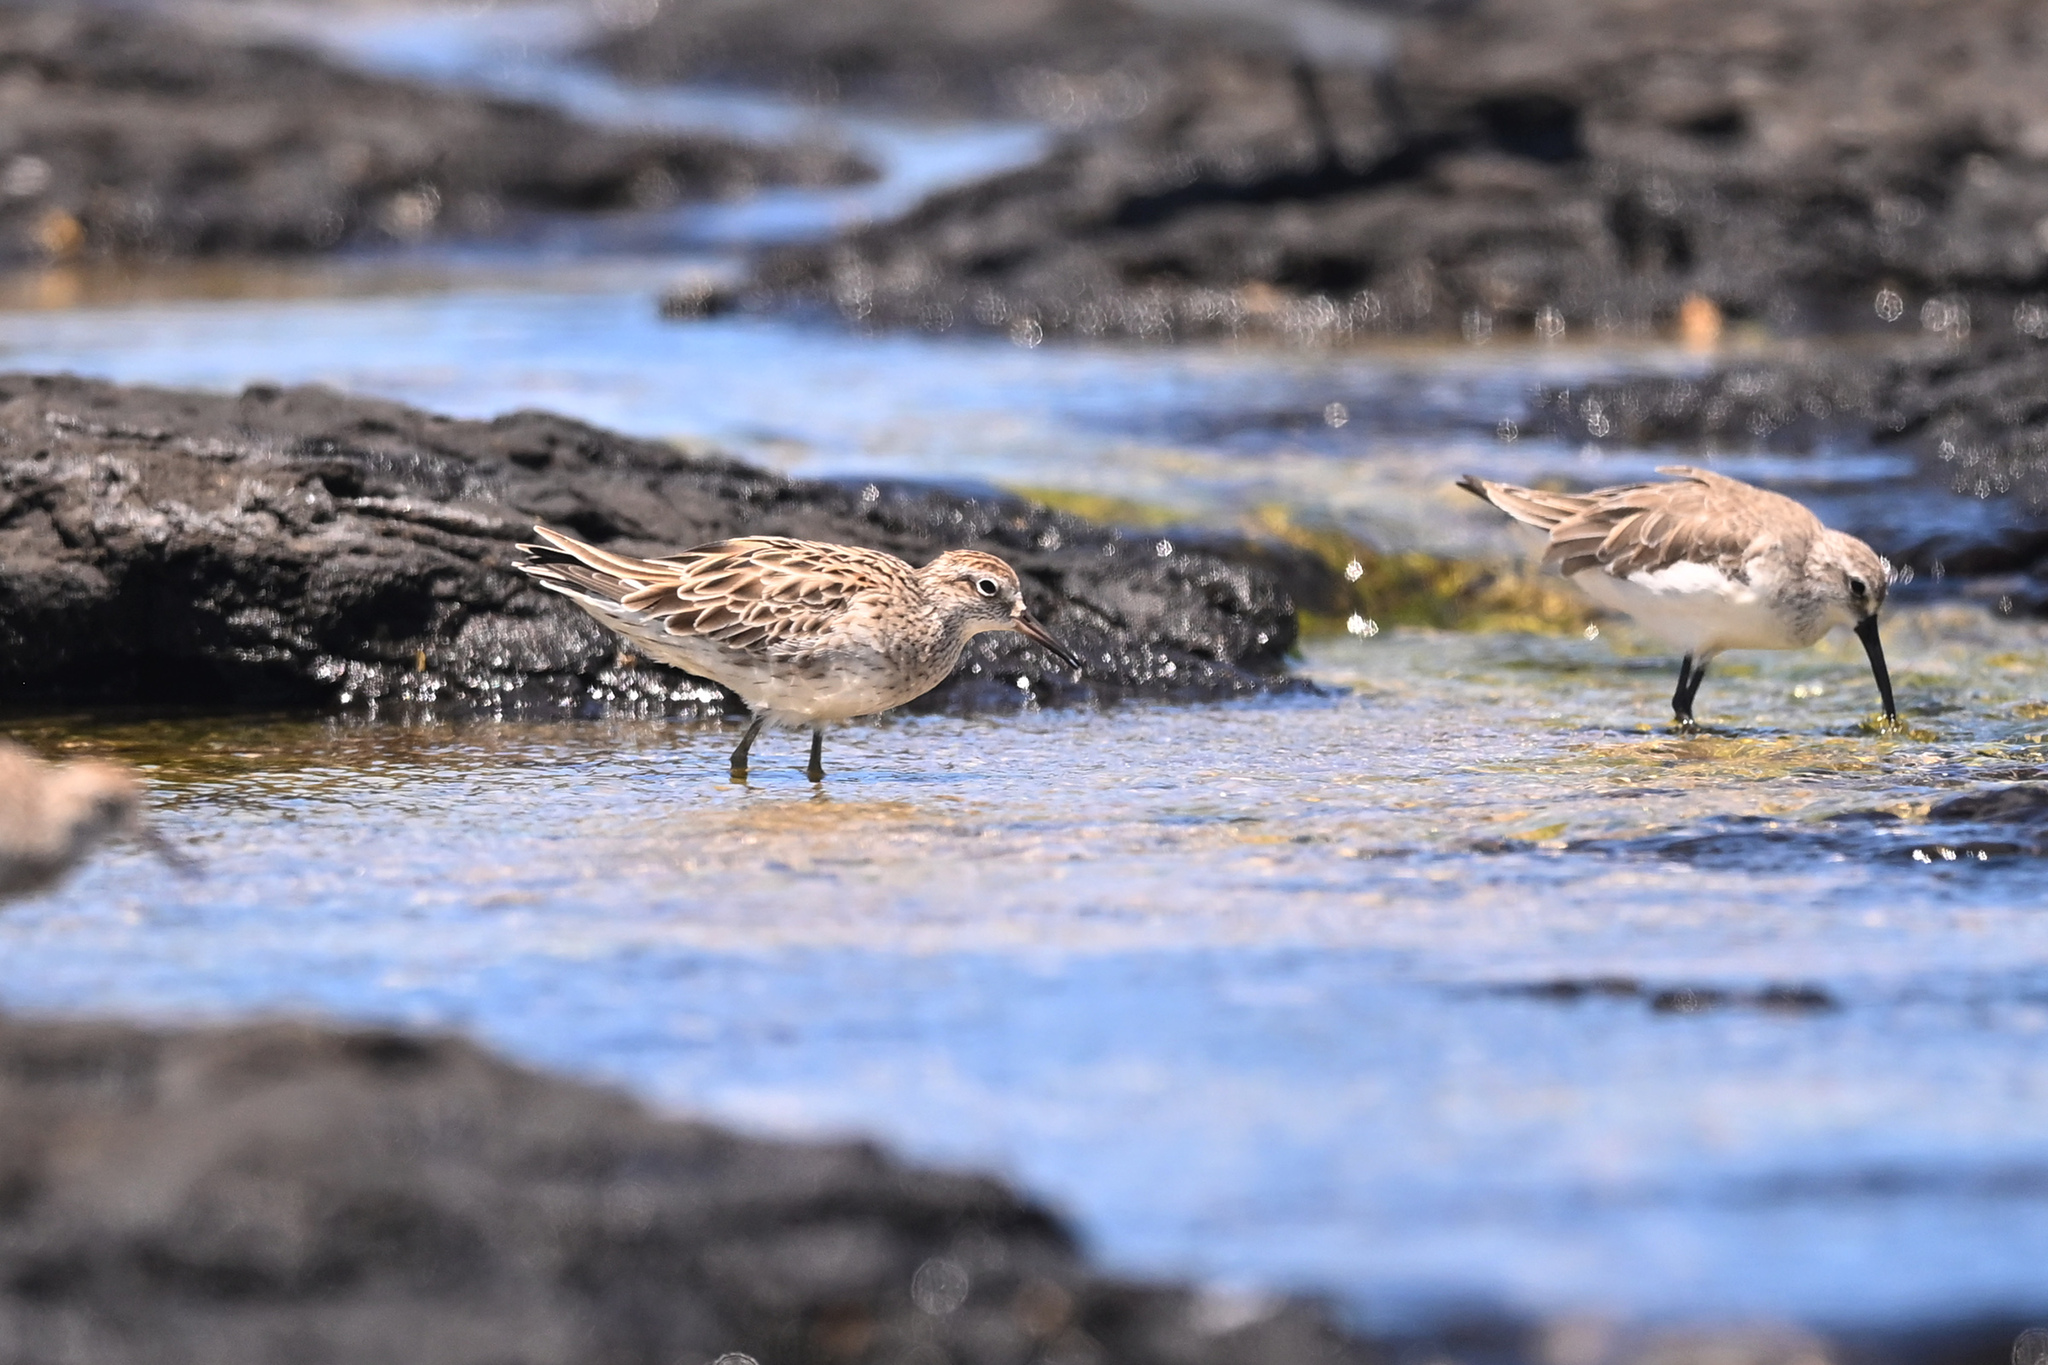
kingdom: Animalia
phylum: Chordata
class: Aves
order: Charadriiformes
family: Scolopacidae
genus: Calidris
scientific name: Calidris acuminata
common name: Sharp-tailed sandpiper
